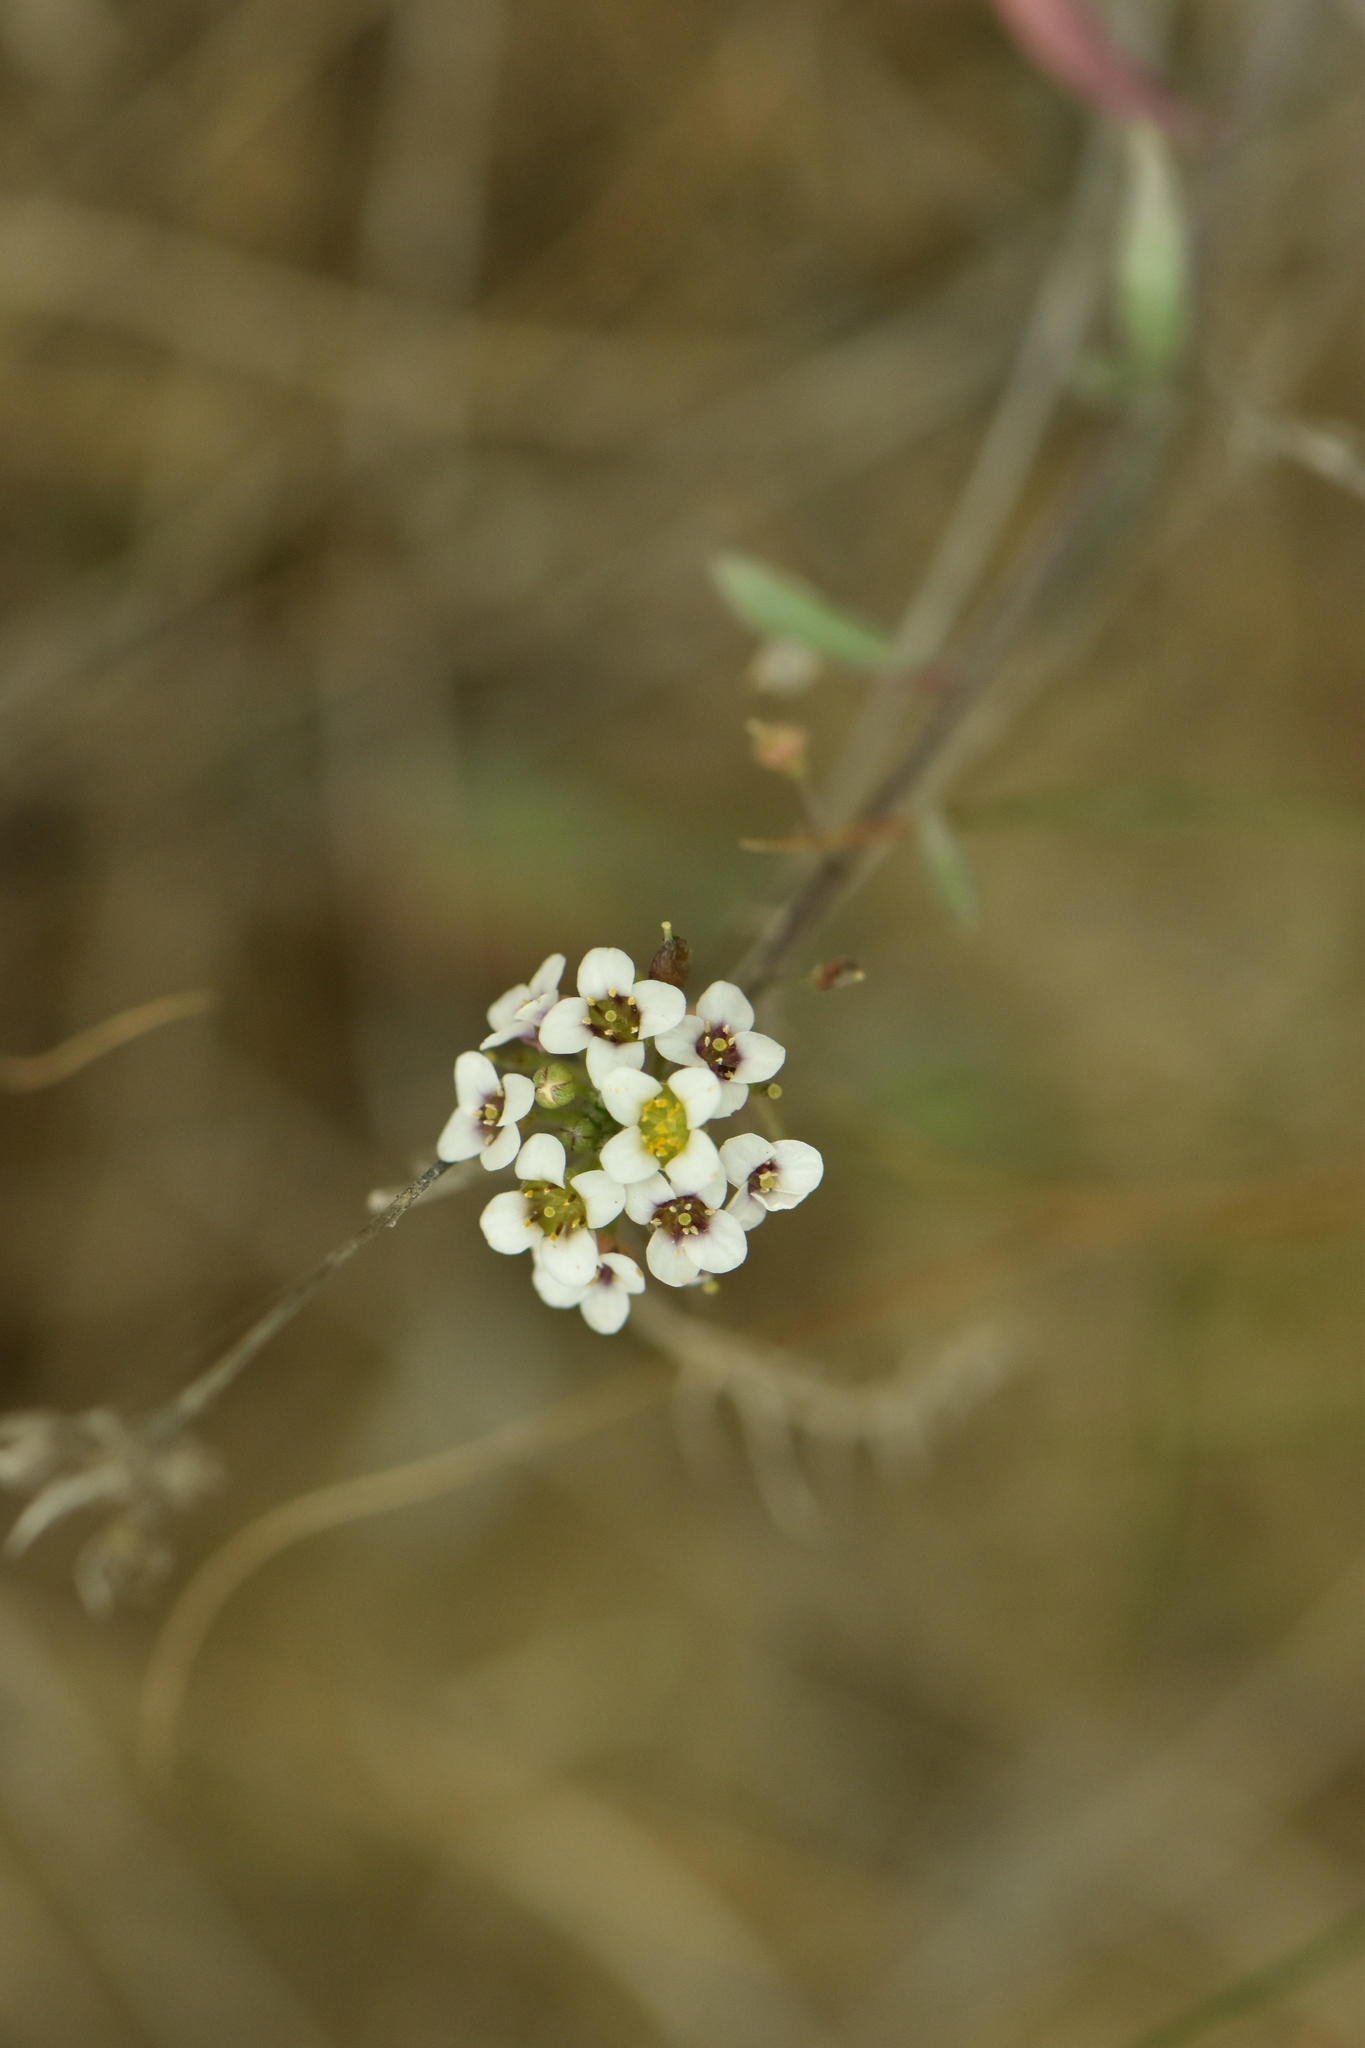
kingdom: Plantae
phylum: Tracheophyta
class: Magnoliopsida
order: Brassicales
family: Brassicaceae
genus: Lobularia
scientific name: Lobularia maritima
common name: Sweet alison
